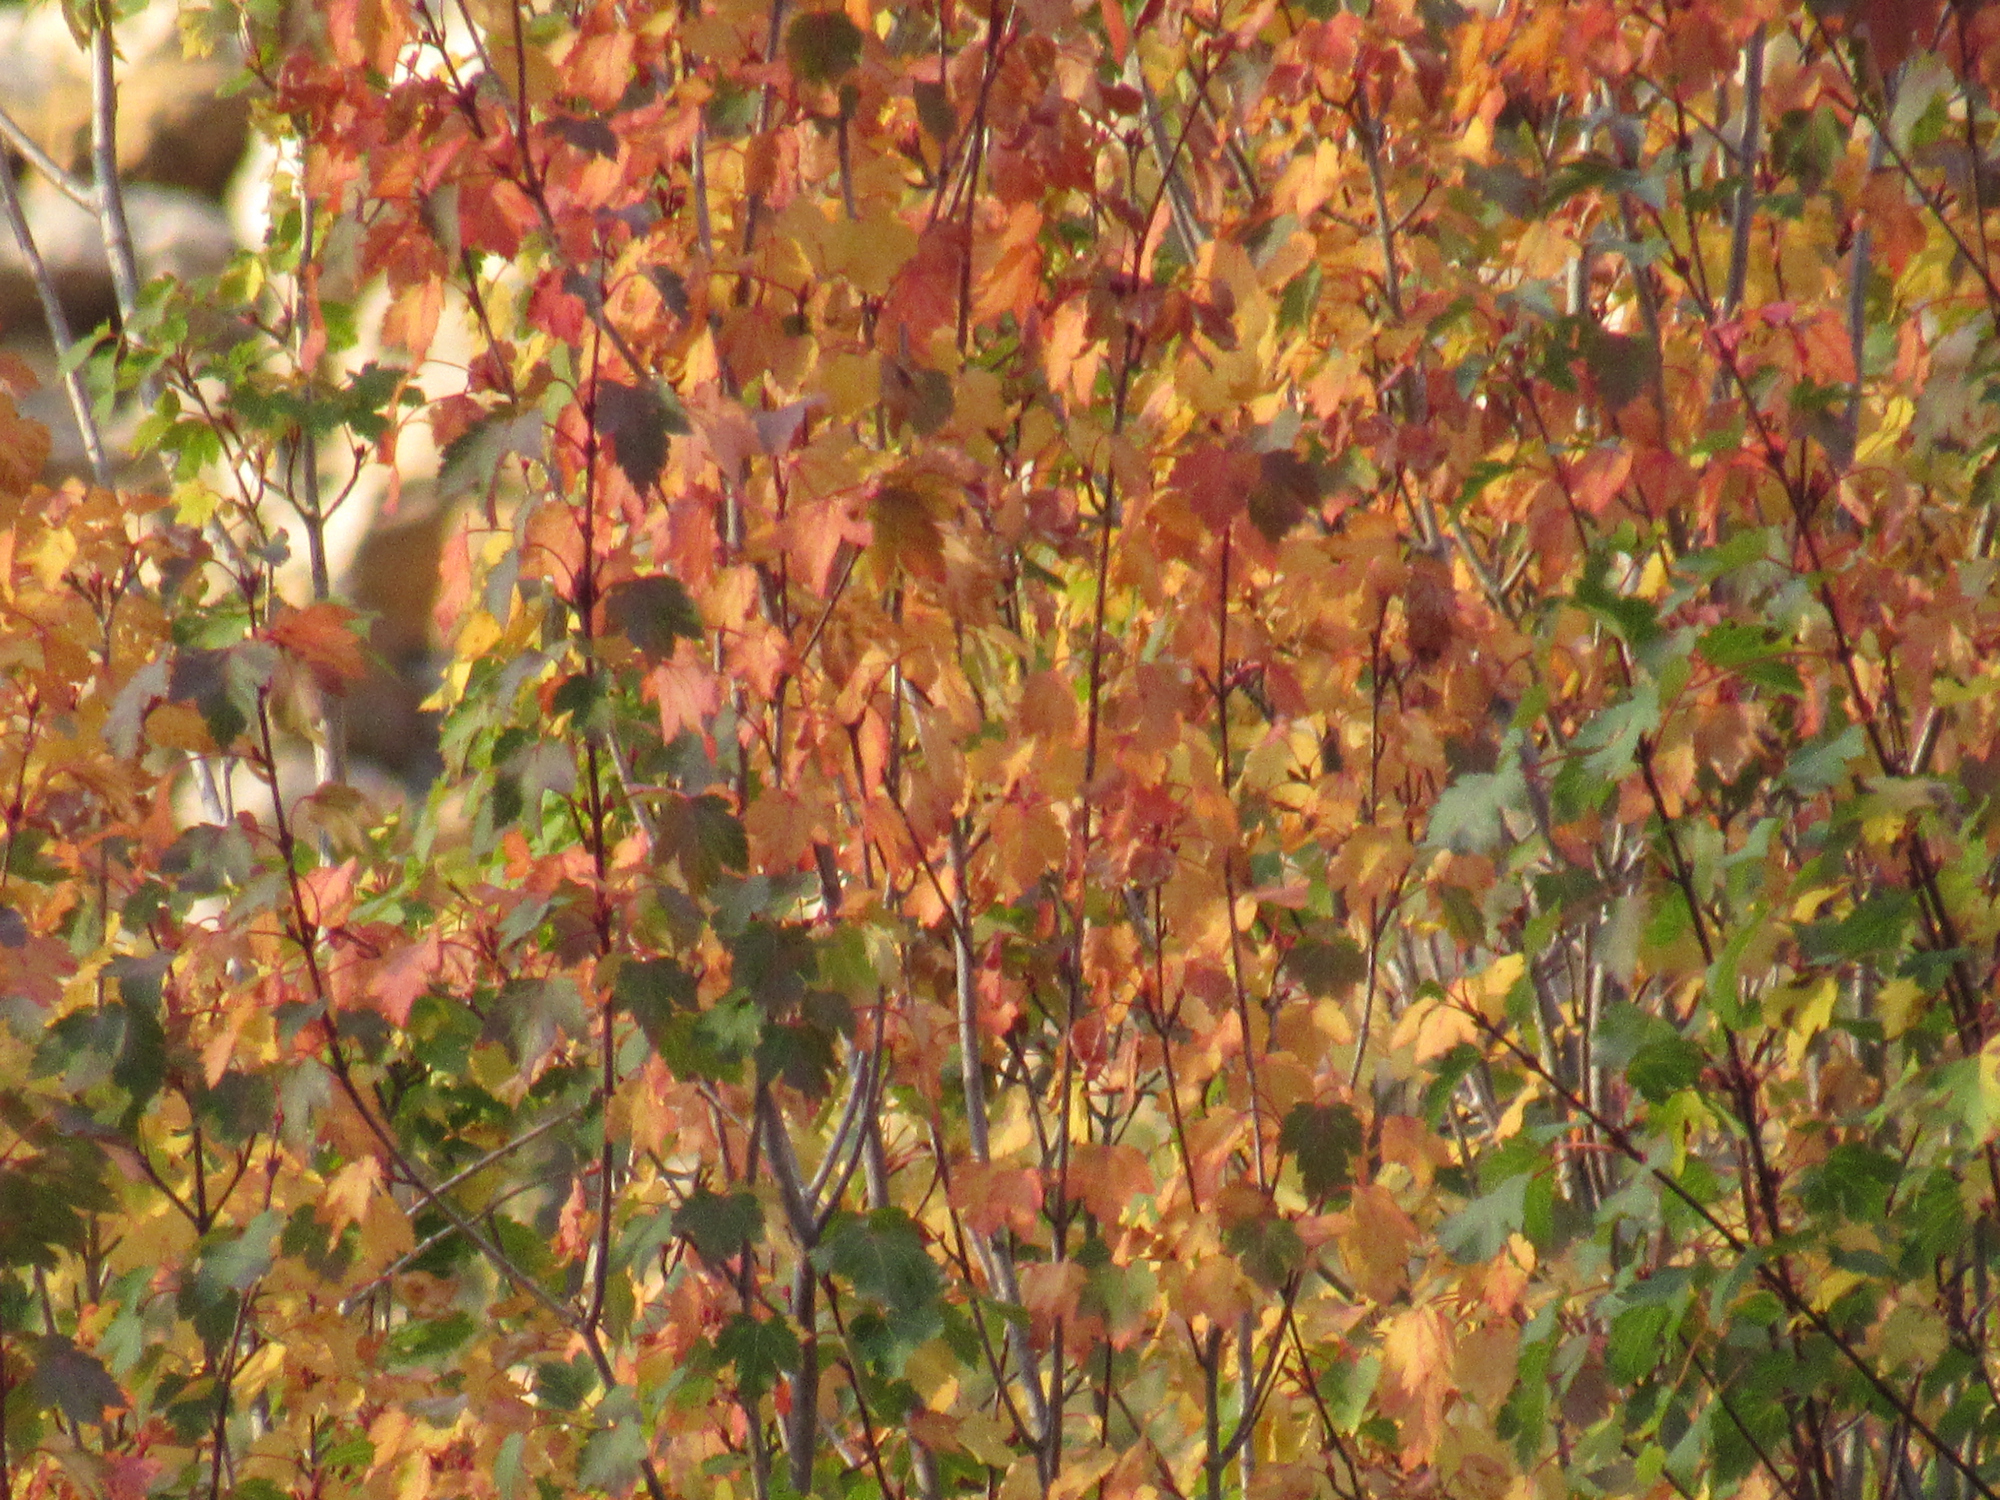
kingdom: Plantae
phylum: Tracheophyta
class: Magnoliopsida
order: Sapindales
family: Sapindaceae
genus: Acer
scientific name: Acer glabrum
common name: Rocky mountain maple
